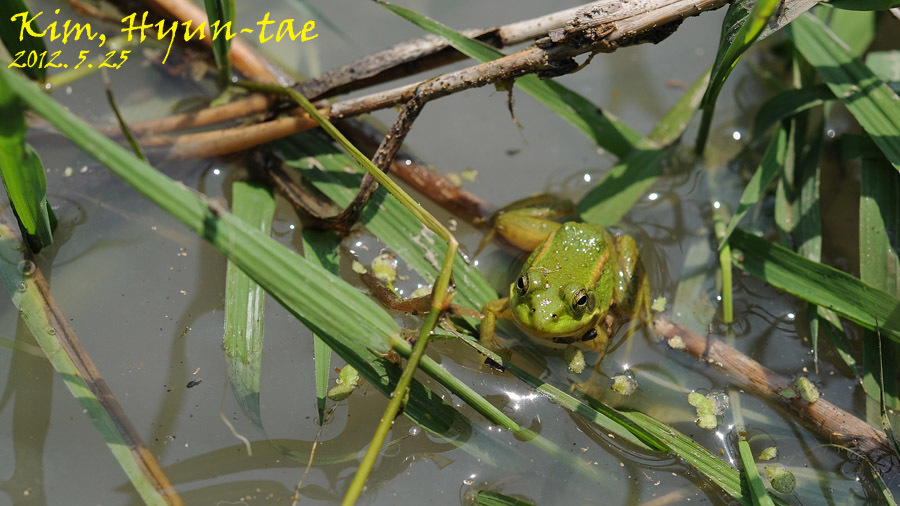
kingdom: Animalia
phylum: Chordata
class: Amphibia
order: Anura
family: Ranidae
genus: Pelophylax
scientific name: Pelophylax chosenicus
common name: Gold-spotted pond frog
